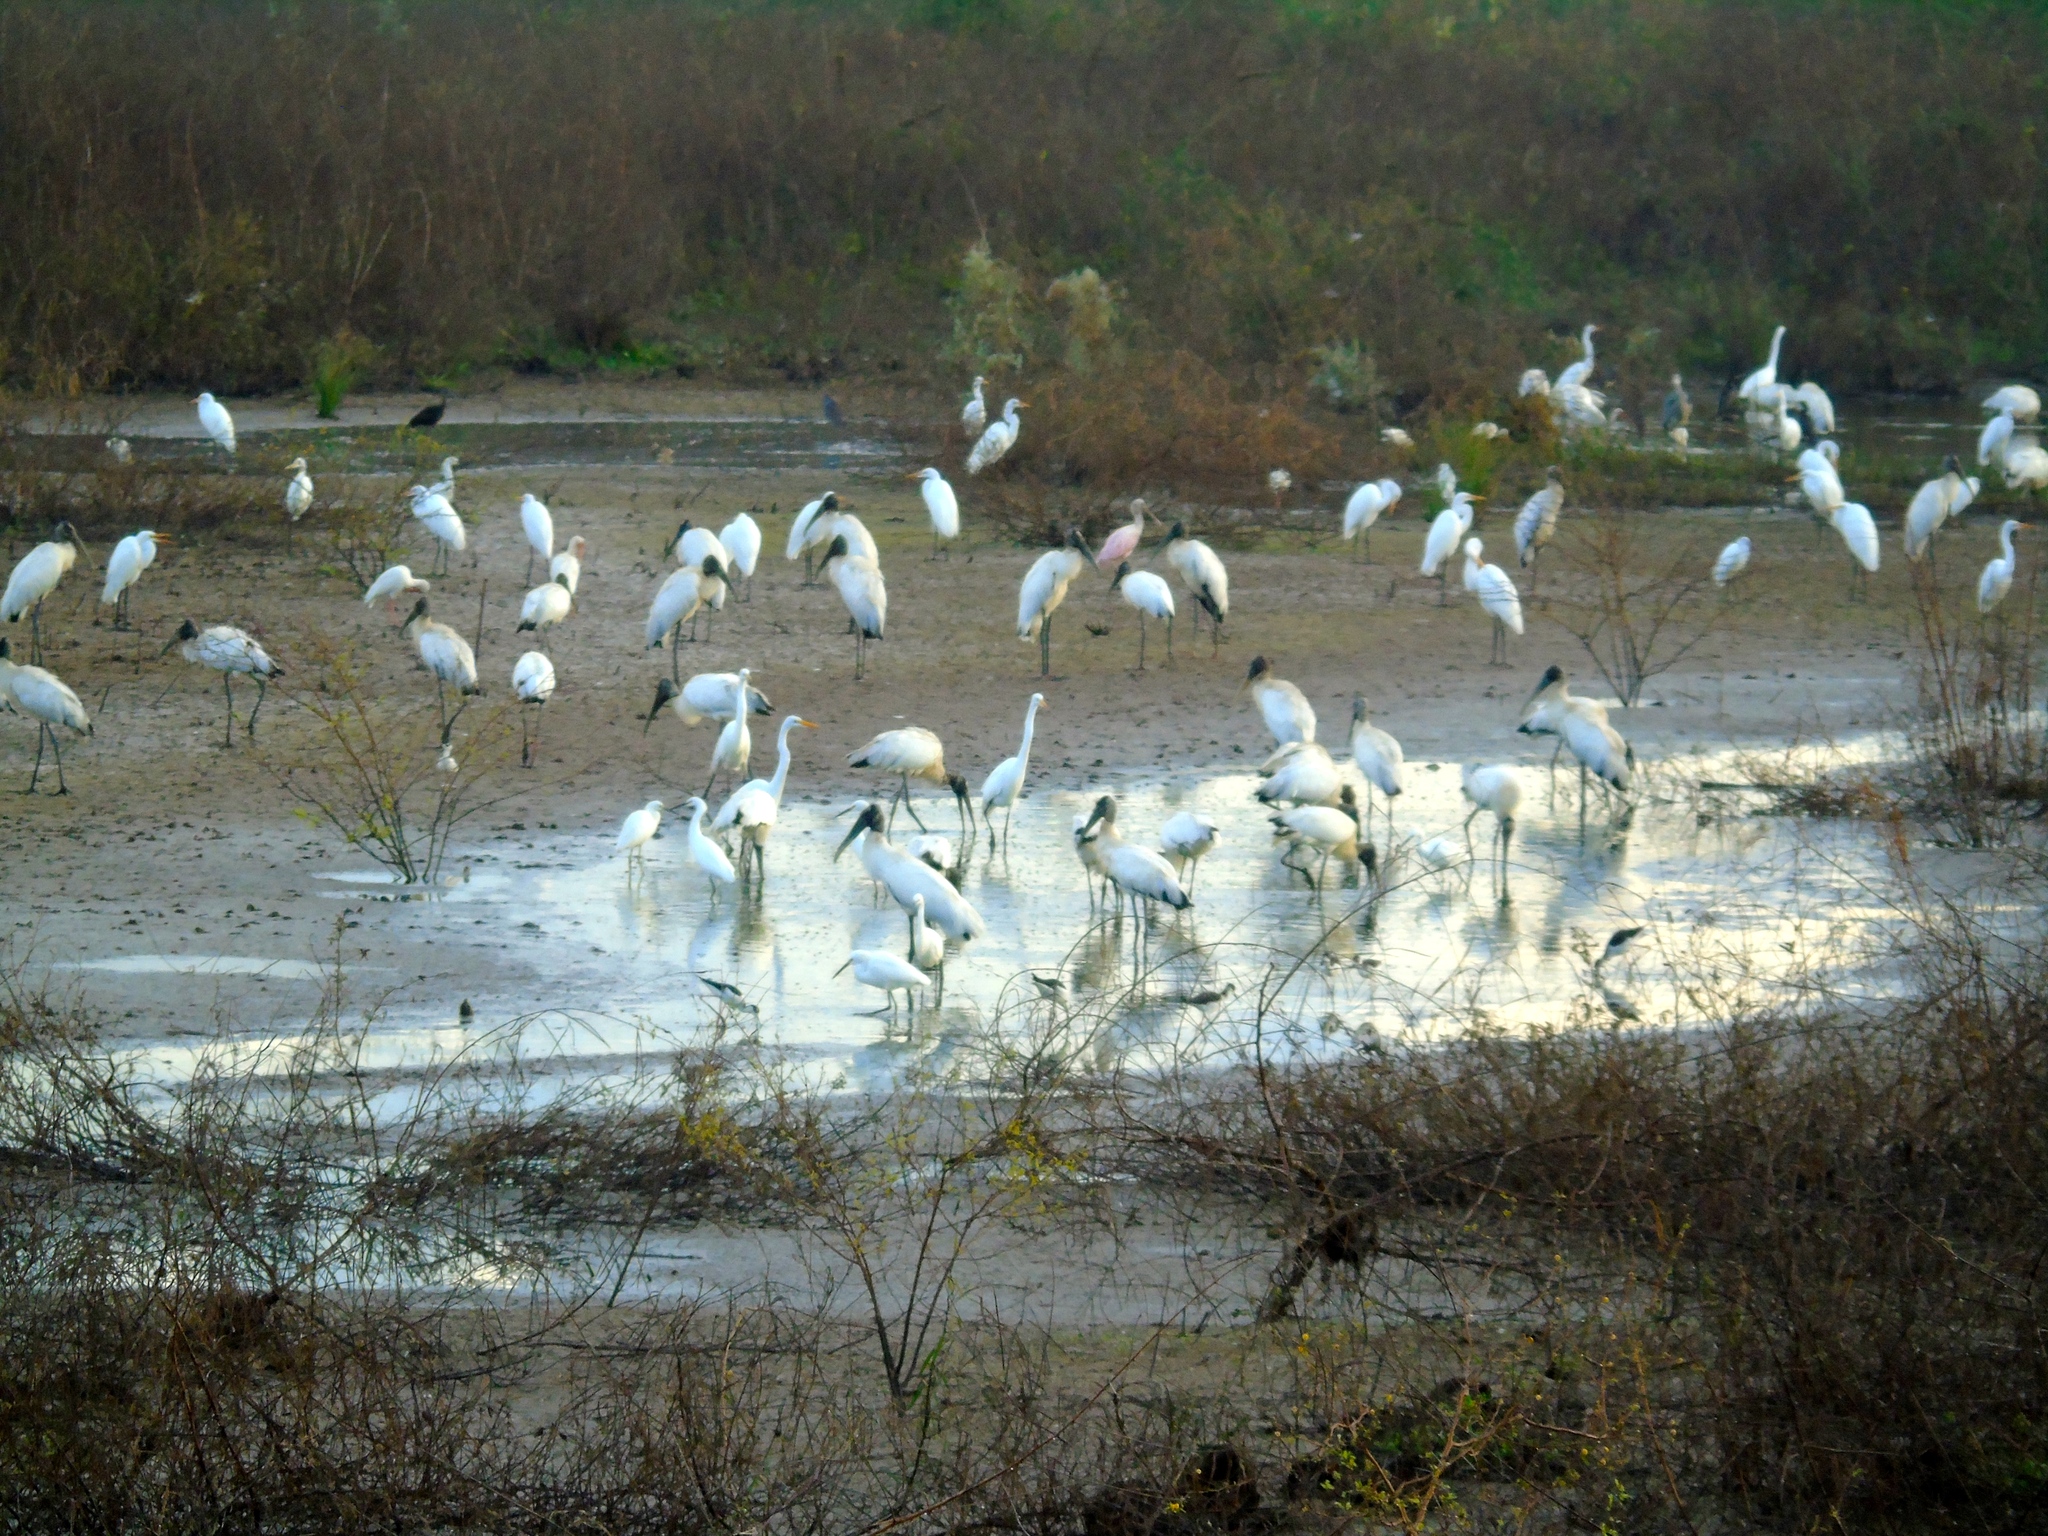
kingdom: Animalia
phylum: Chordata
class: Aves
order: Pelecaniformes
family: Threskiornithidae
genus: Platalea
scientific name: Platalea ajaja
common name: Roseate spoonbill
